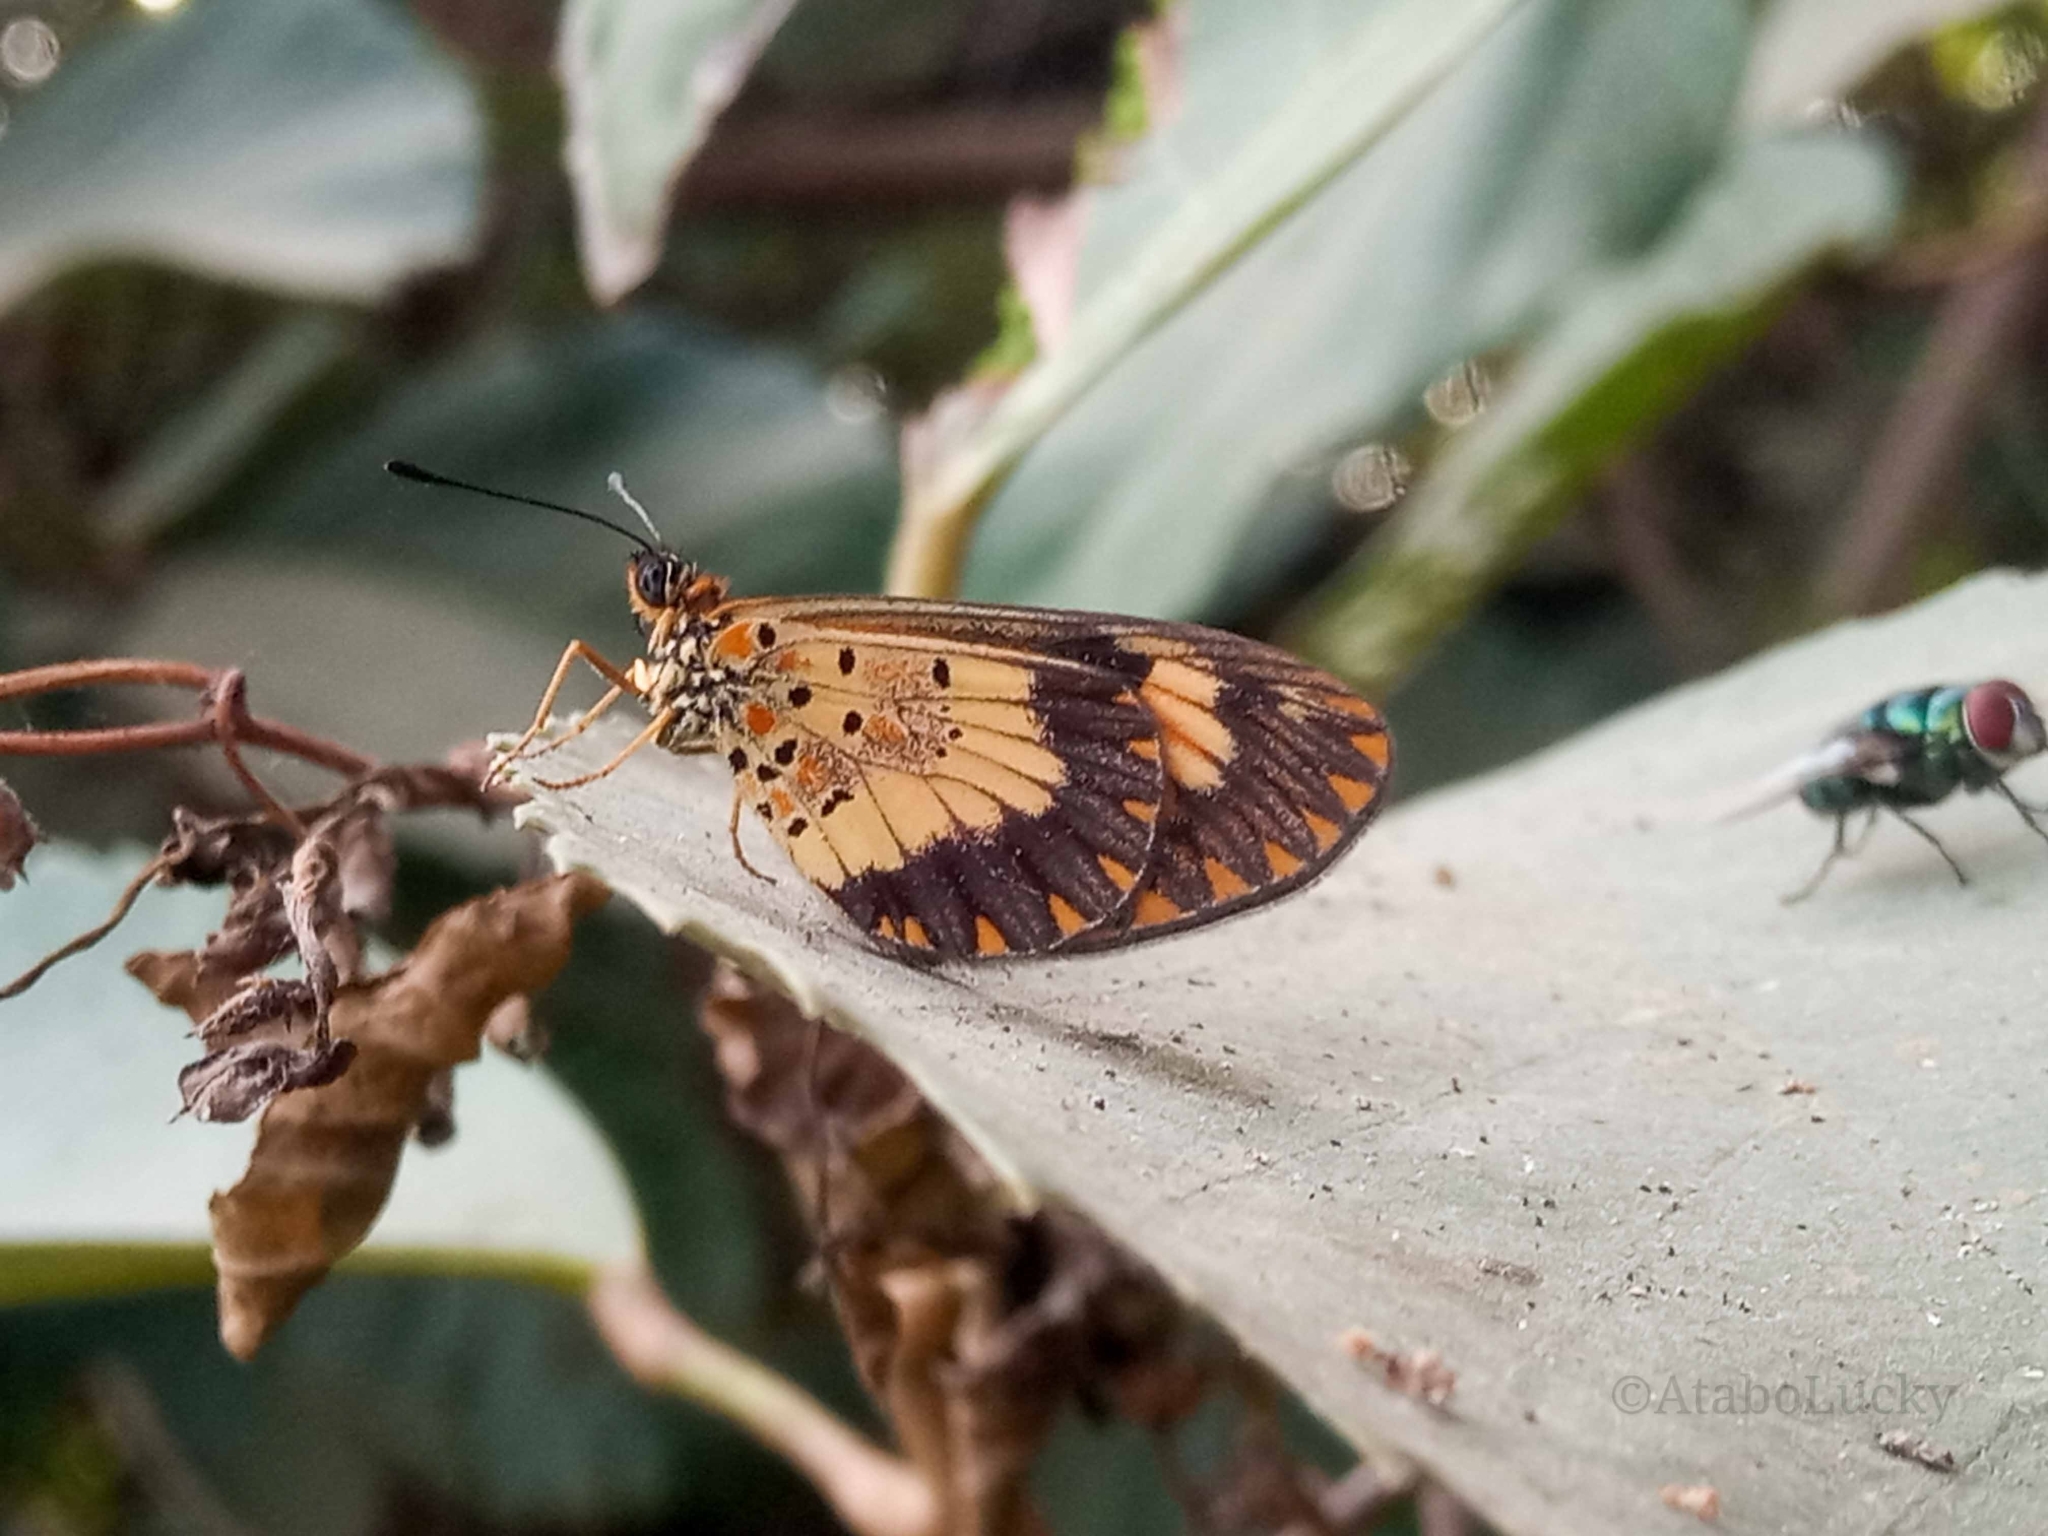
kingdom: Animalia
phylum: Arthropoda
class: Insecta
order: Lepidoptera
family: Nymphalidae
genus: Acraea
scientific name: Acraea Telchinia acerata
